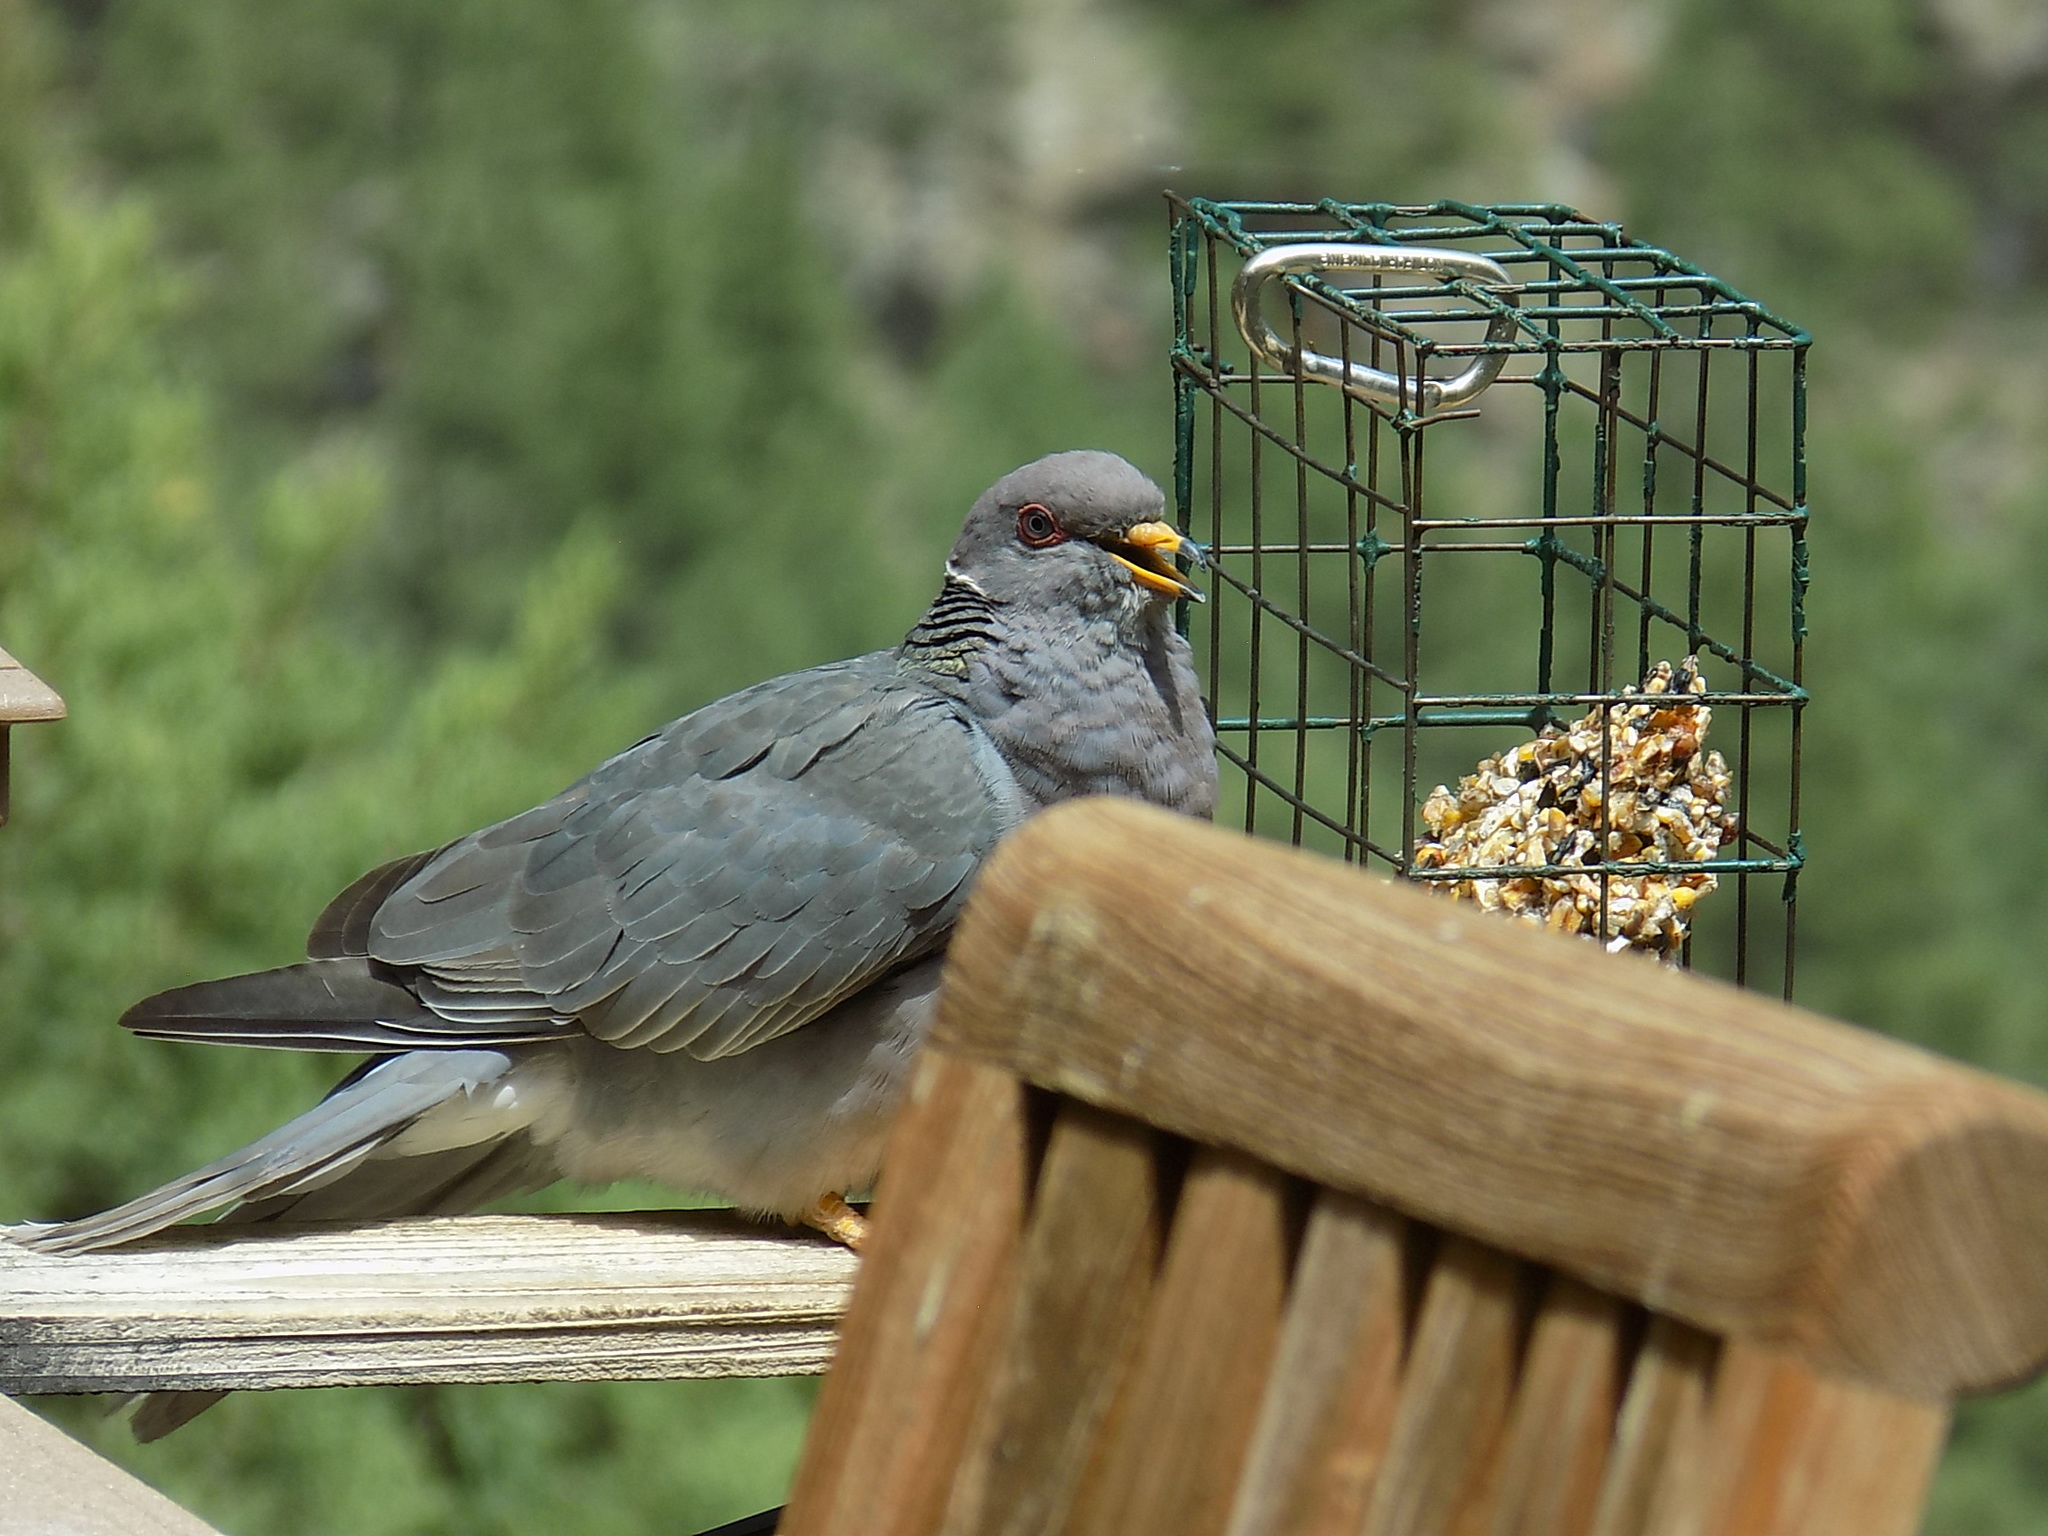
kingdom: Animalia
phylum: Chordata
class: Aves
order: Columbiformes
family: Columbidae
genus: Patagioenas
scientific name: Patagioenas fasciata
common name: Band-tailed pigeon
